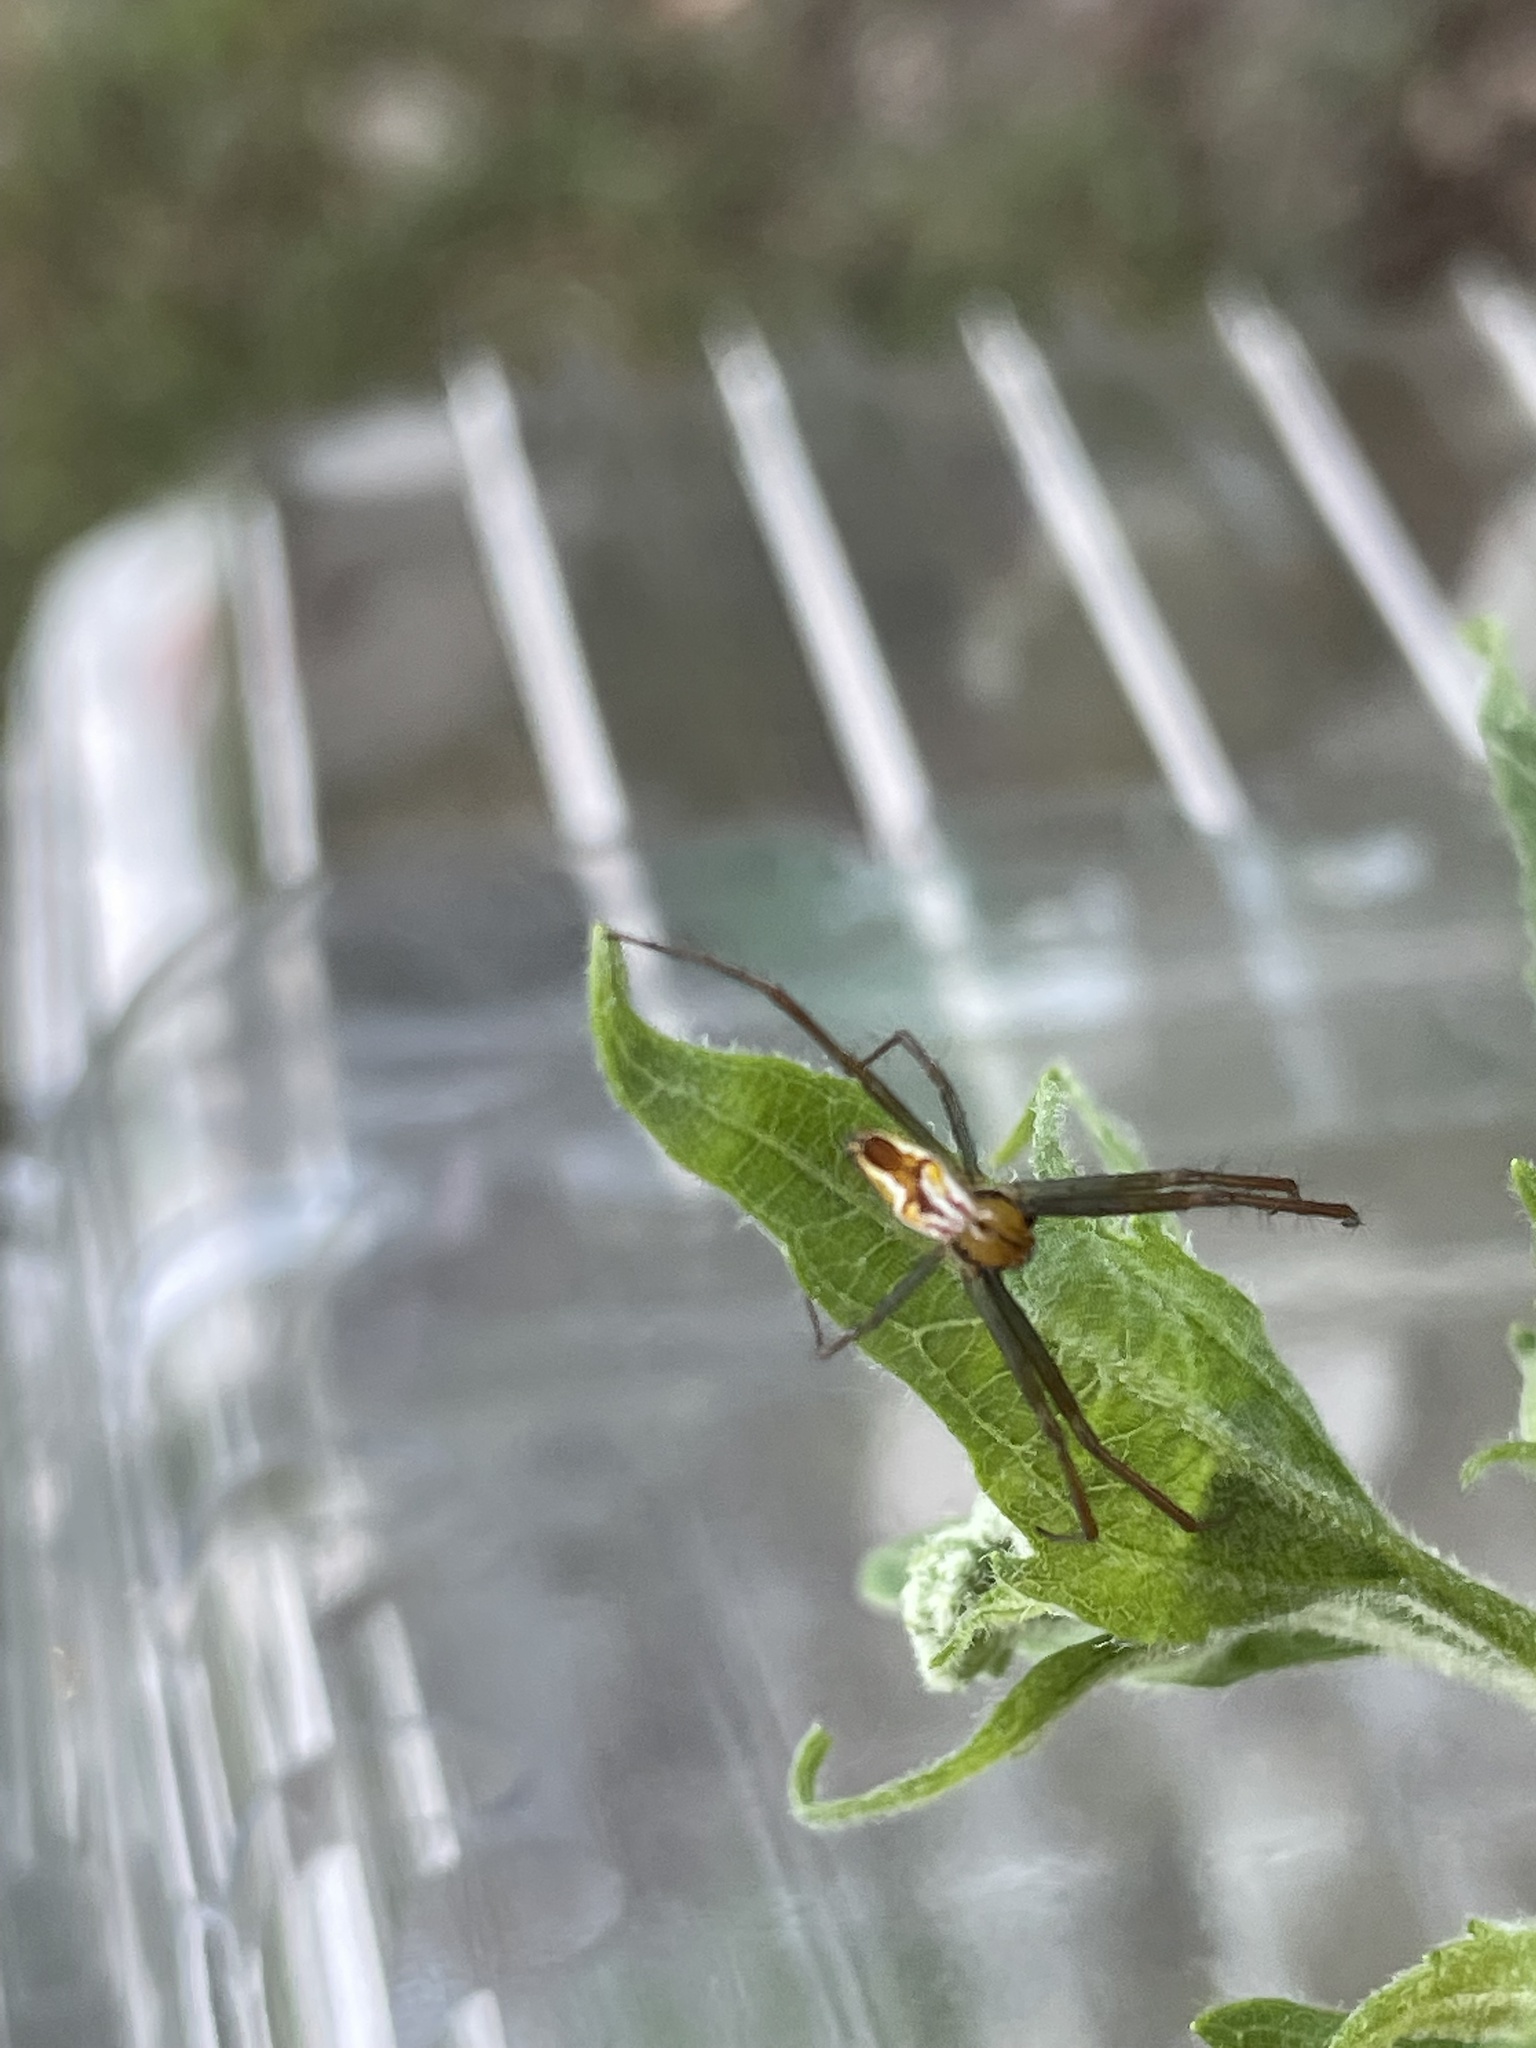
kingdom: Animalia
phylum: Arthropoda
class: Arachnida
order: Araneae
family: Araneidae
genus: Mecynogea
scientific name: Mecynogea lemniscata
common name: Orb weavers
